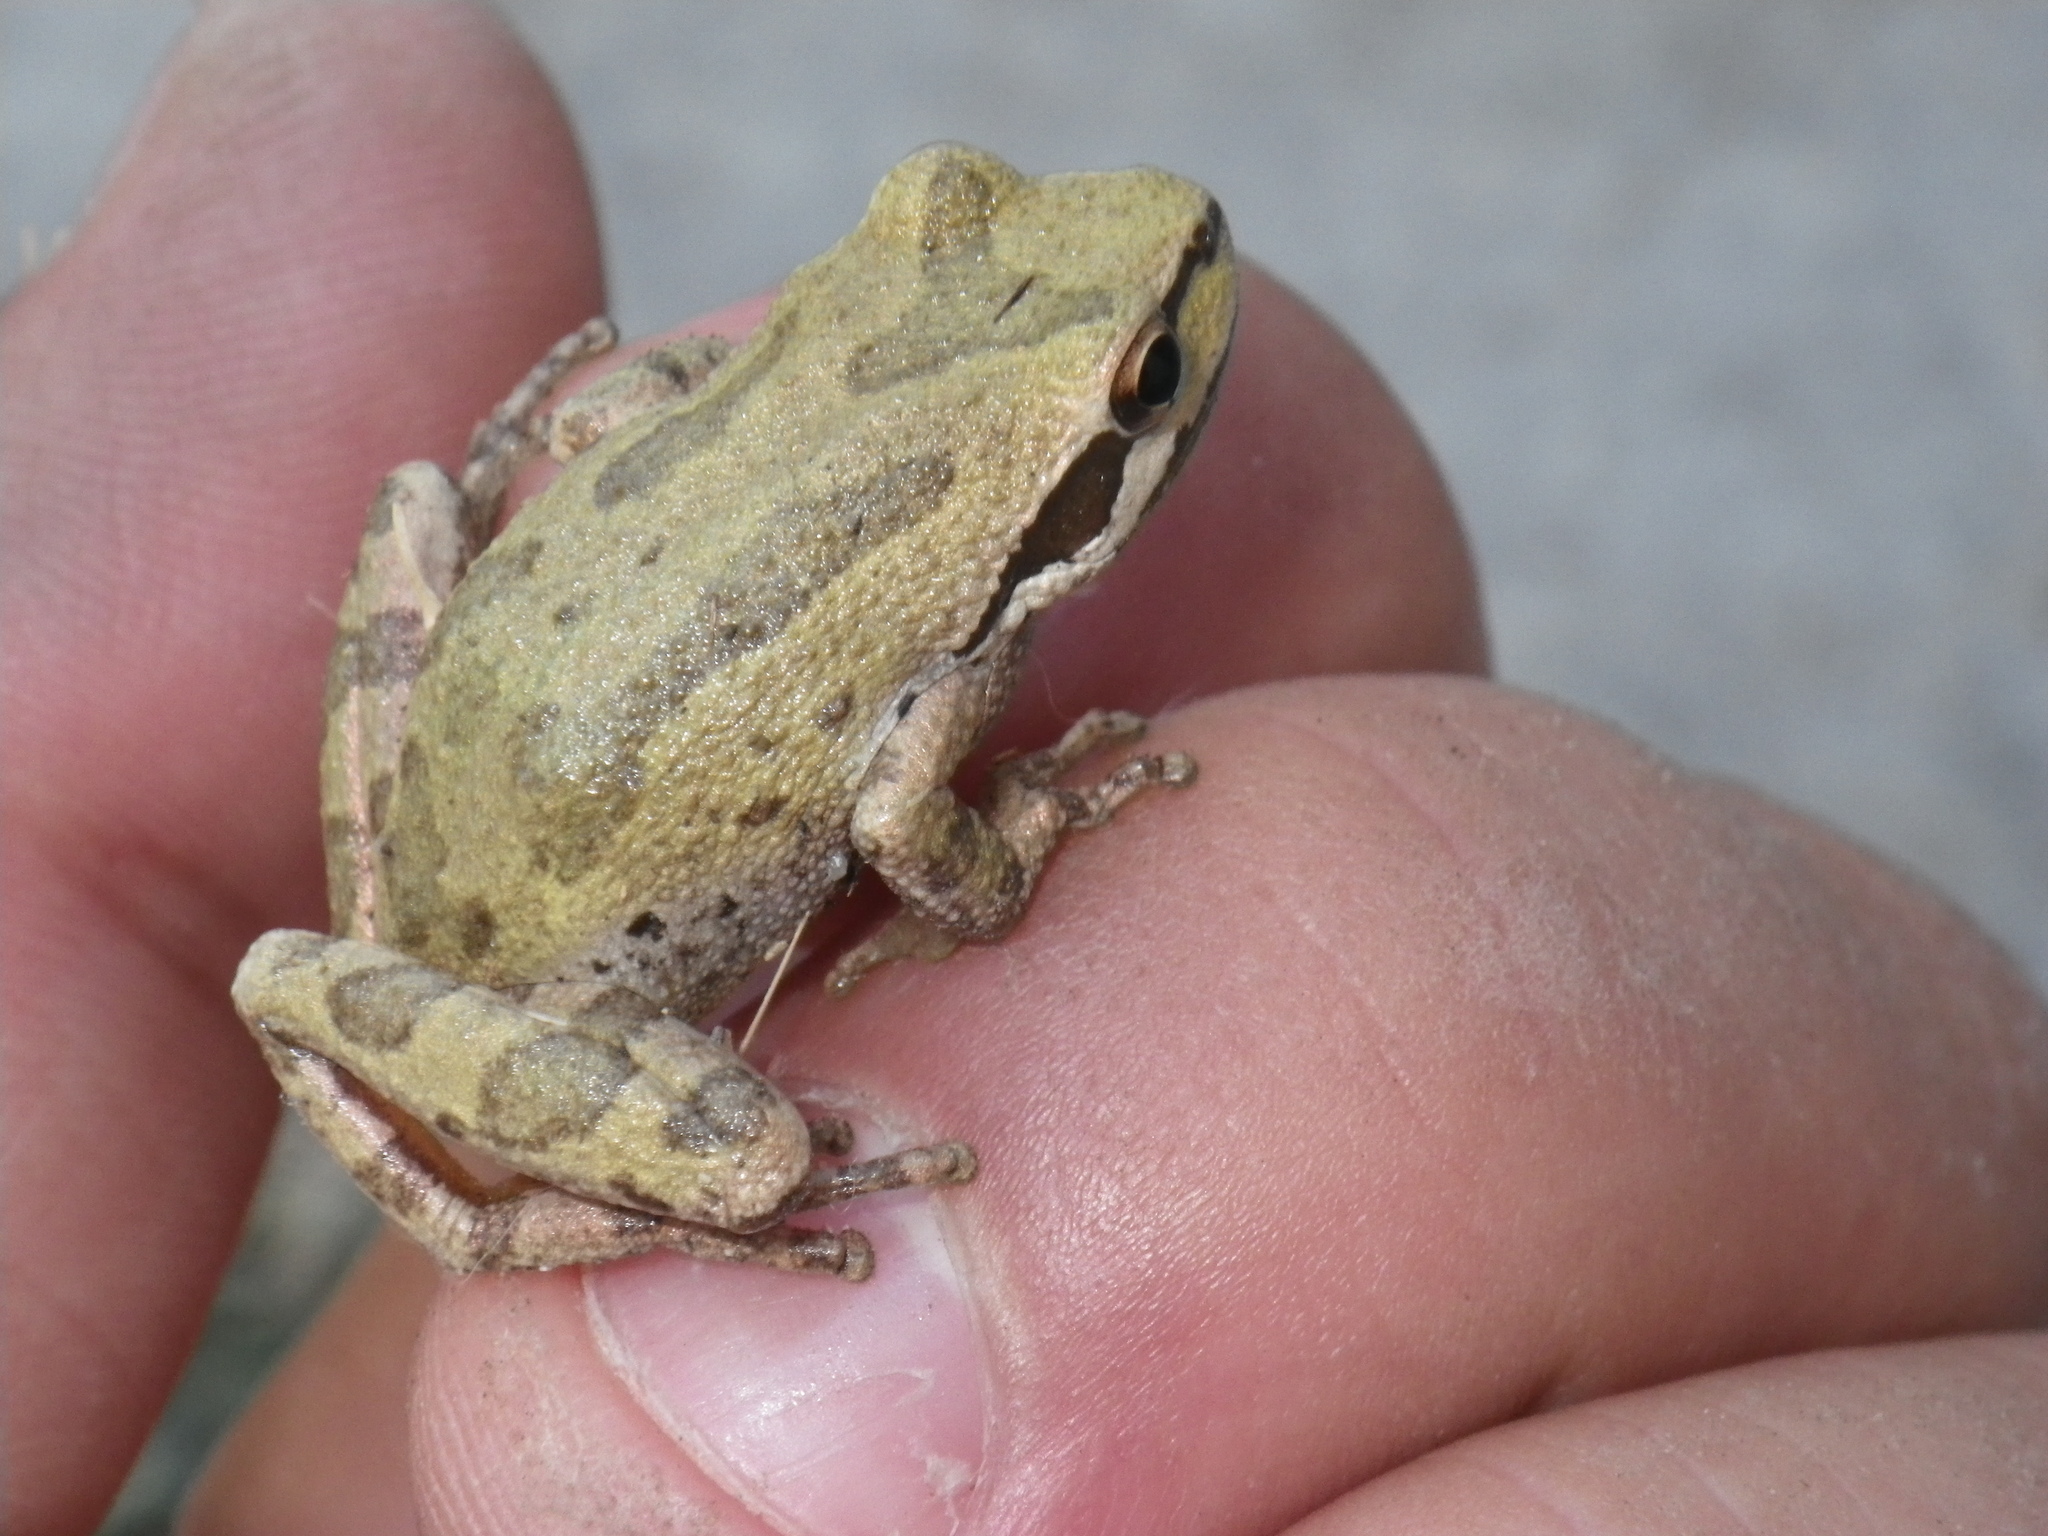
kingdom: Animalia
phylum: Chordata
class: Amphibia
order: Anura
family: Hylidae
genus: Pseudacris
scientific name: Pseudacris regilla
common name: Pacific chorus frog
